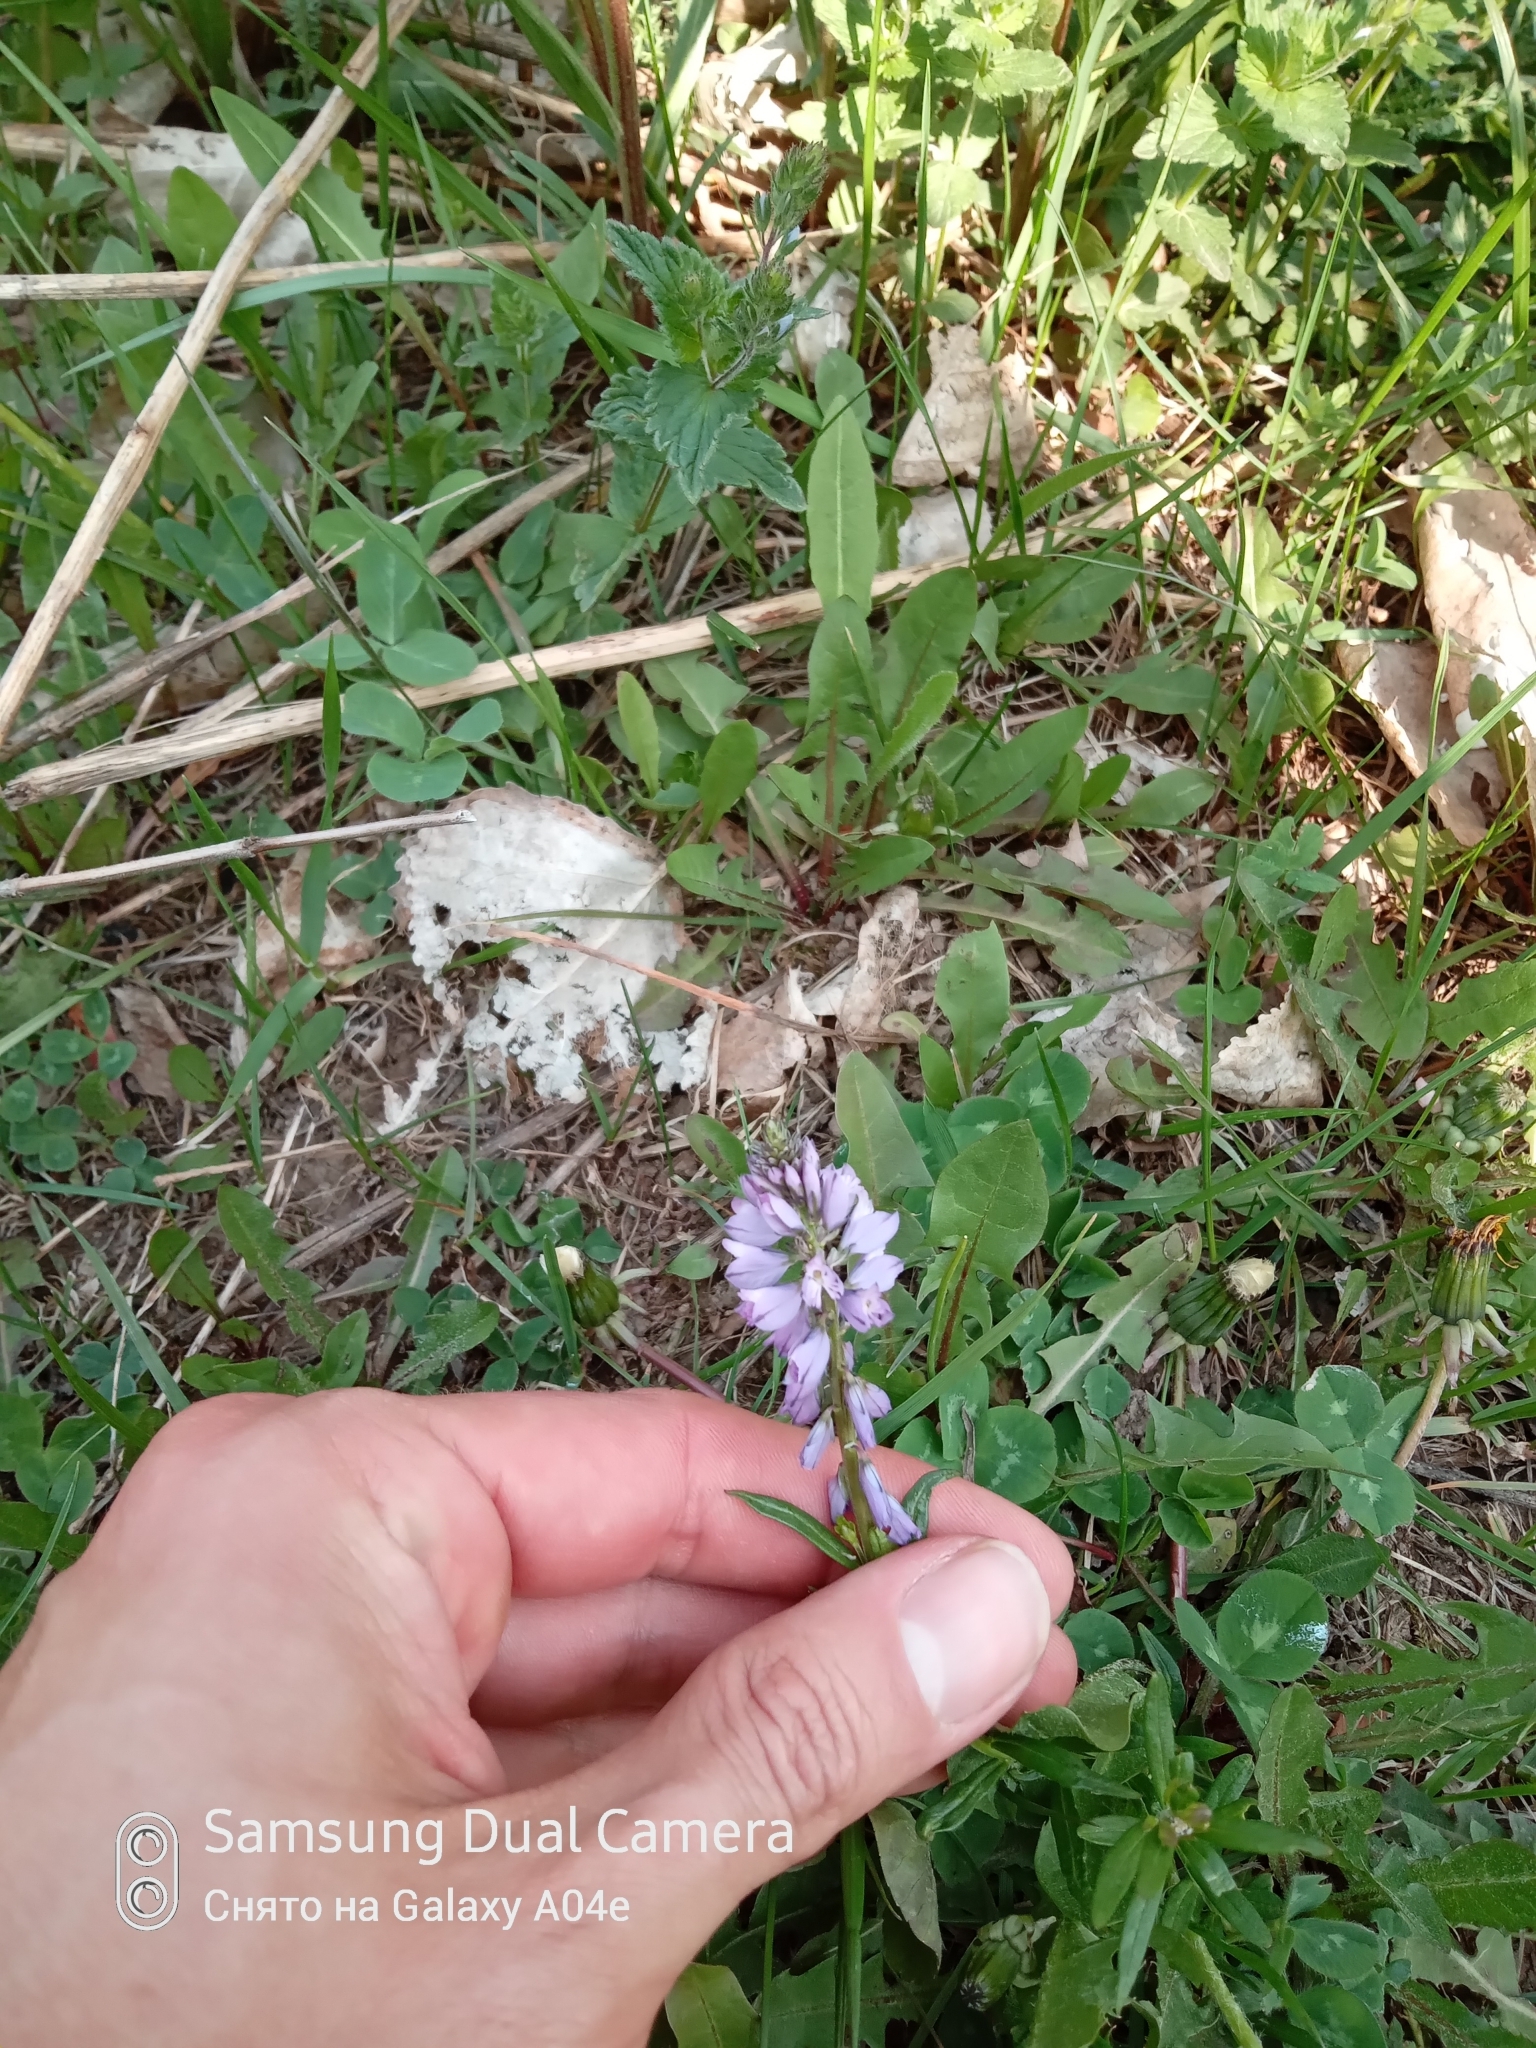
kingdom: Plantae
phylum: Tracheophyta
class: Magnoliopsida
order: Fabales
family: Polygalaceae
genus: Polygala
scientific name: Polygala comosa
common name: Tufted milkwort
